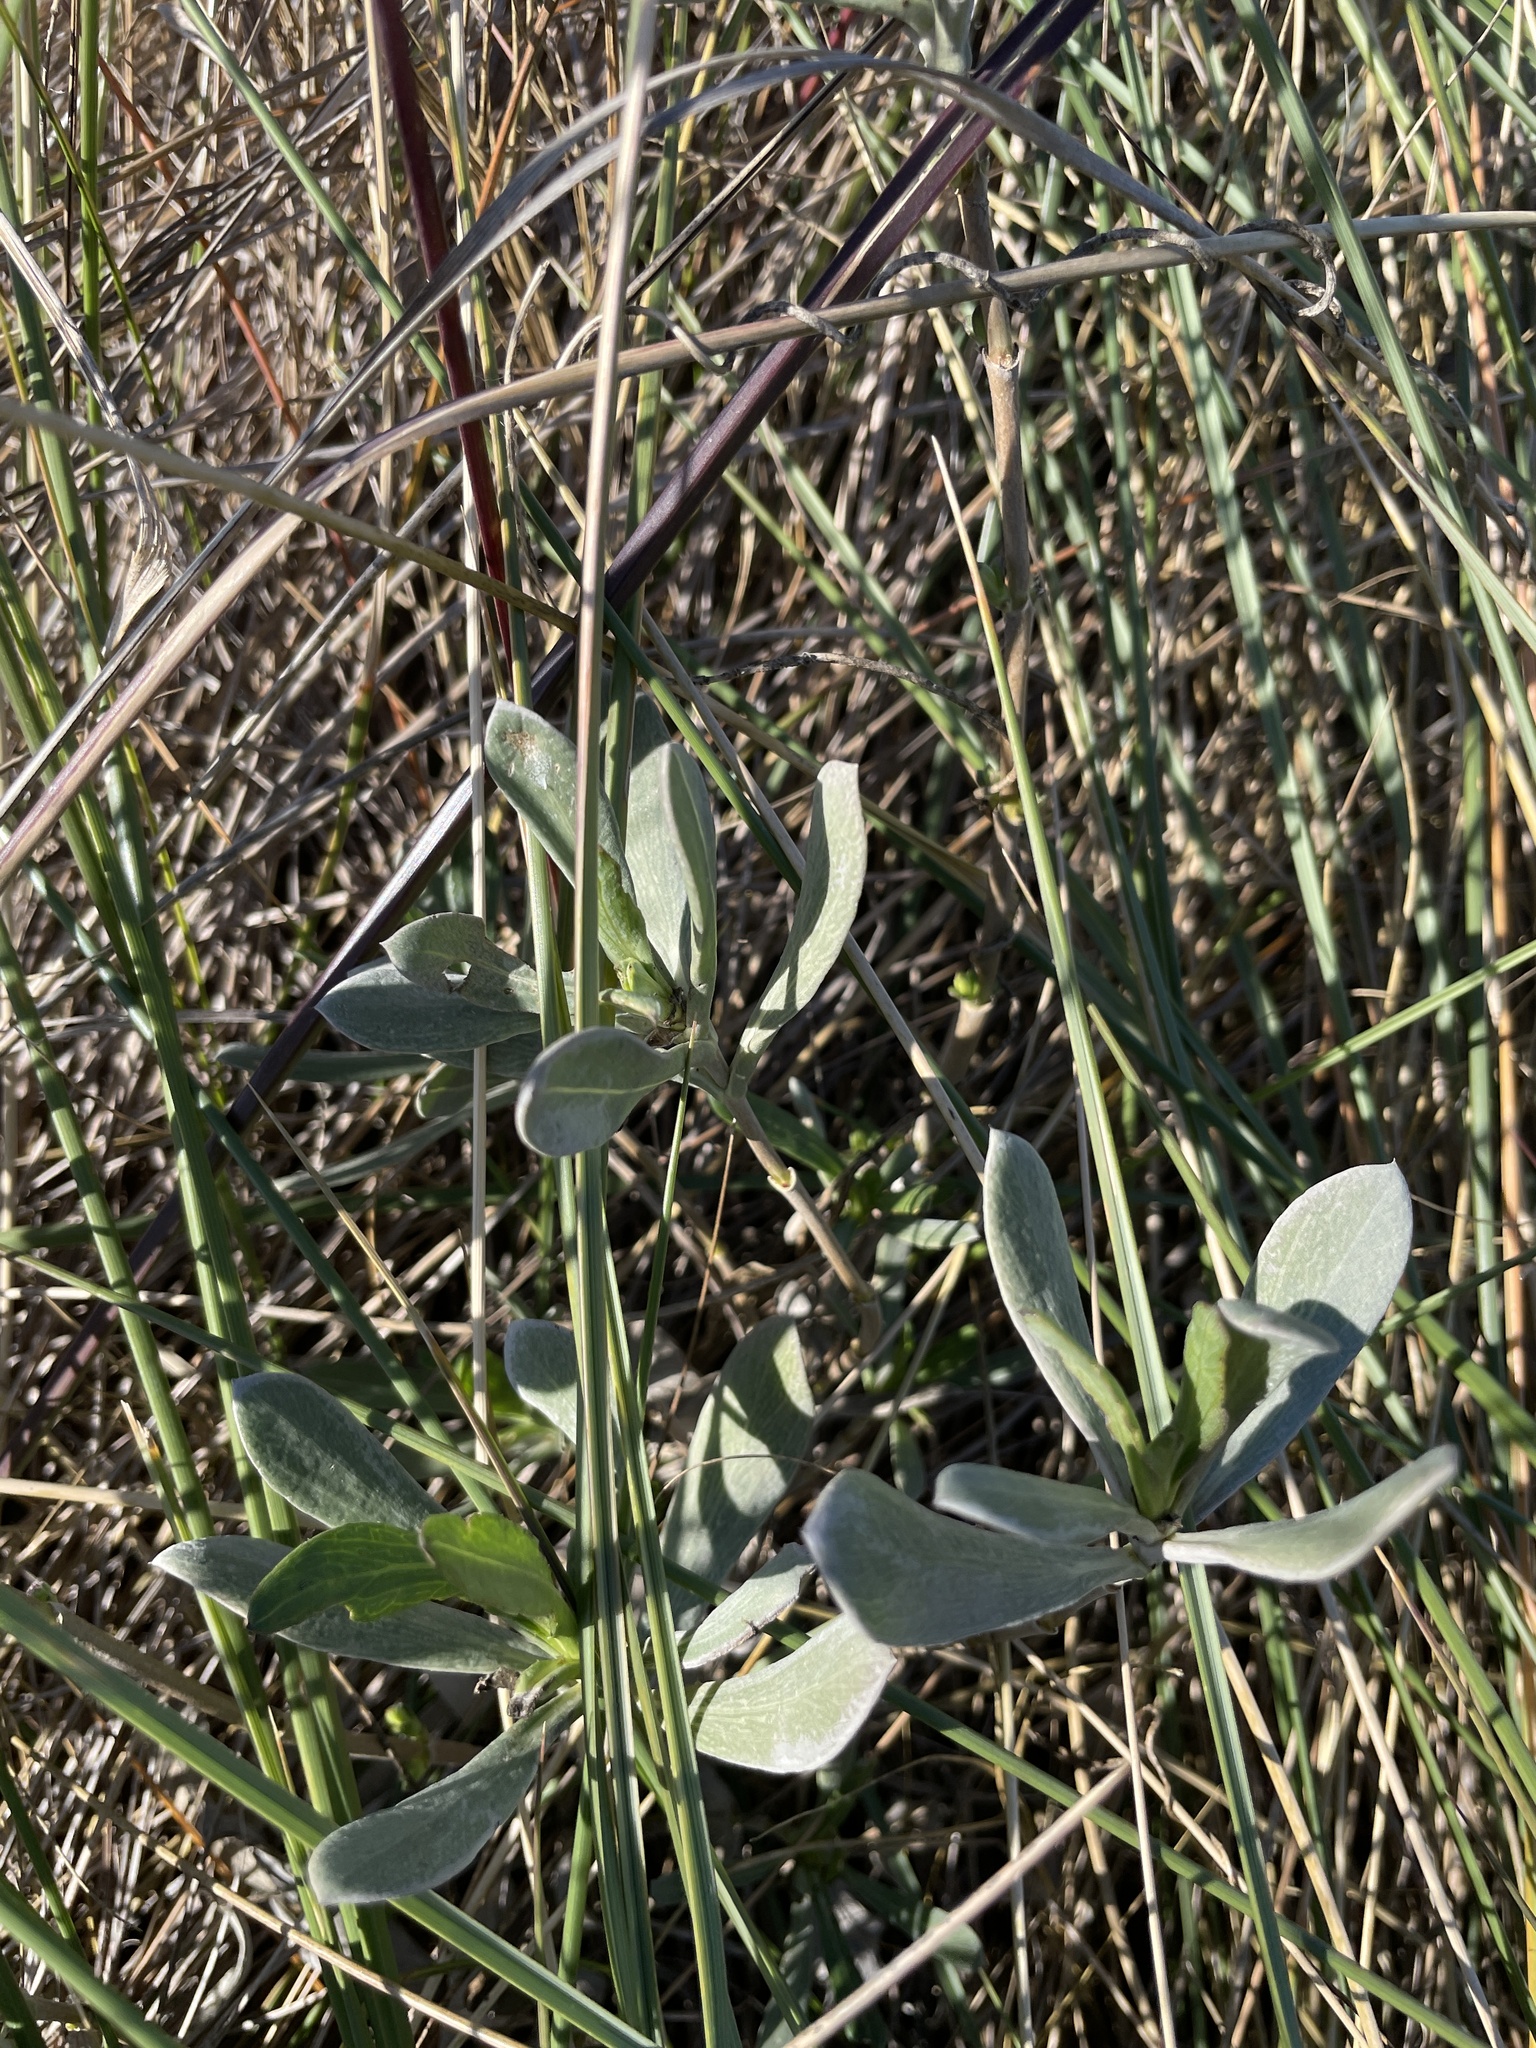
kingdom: Plantae
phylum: Tracheophyta
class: Magnoliopsida
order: Asterales
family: Asteraceae
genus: Borrichia
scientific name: Borrichia frutescens
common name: Sea oxeye
